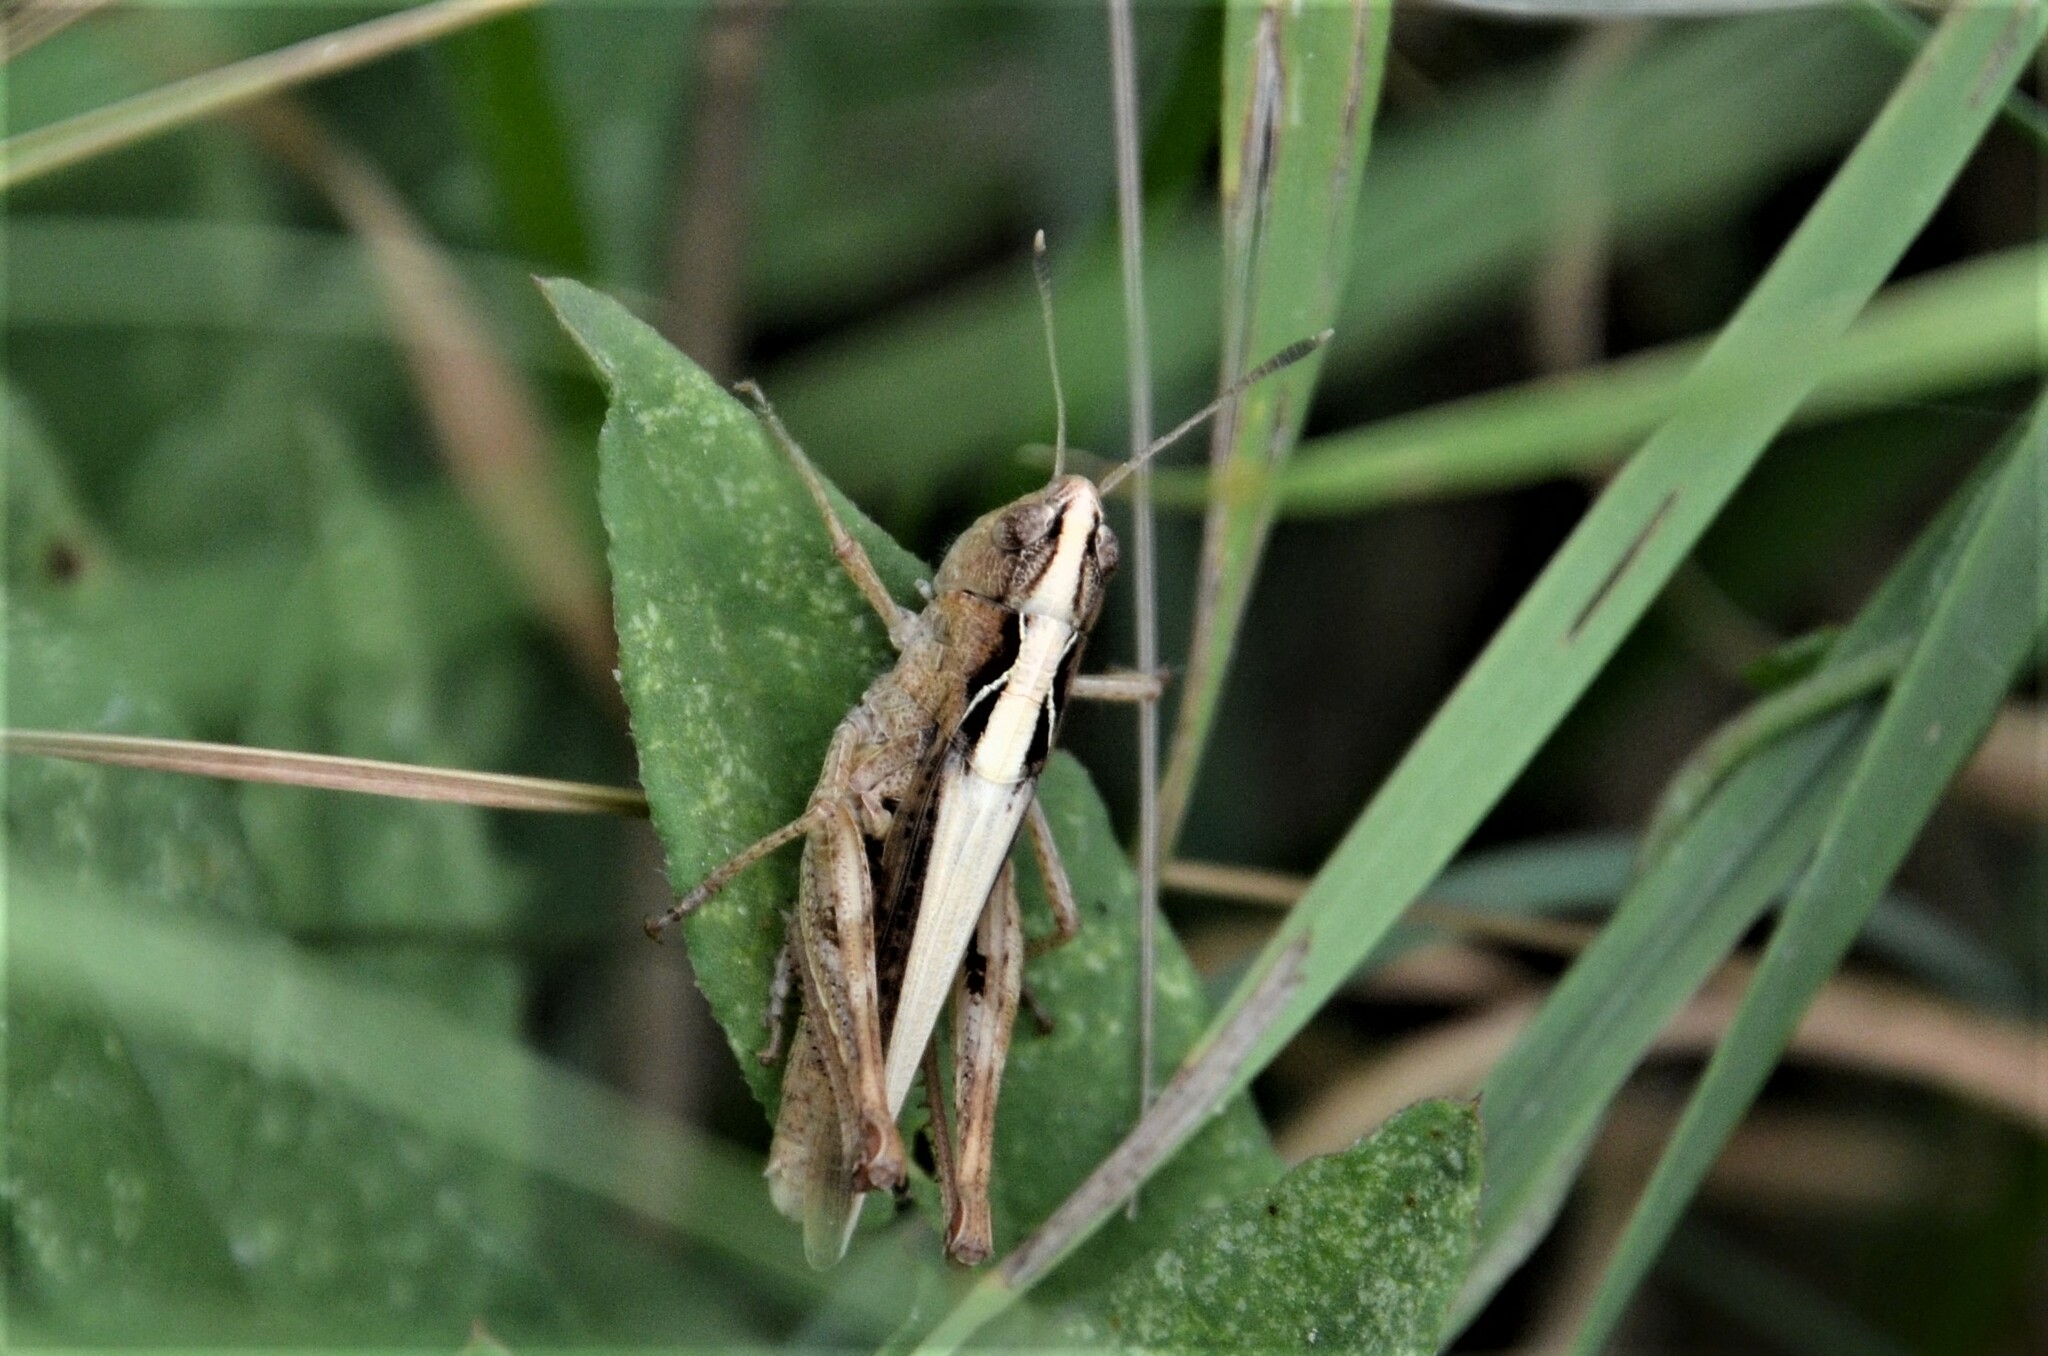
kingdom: Animalia
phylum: Arthropoda
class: Insecta
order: Orthoptera
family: Acrididae
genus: Gomphocerippus
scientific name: Gomphocerippus rufus
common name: Rufous grasshopper
